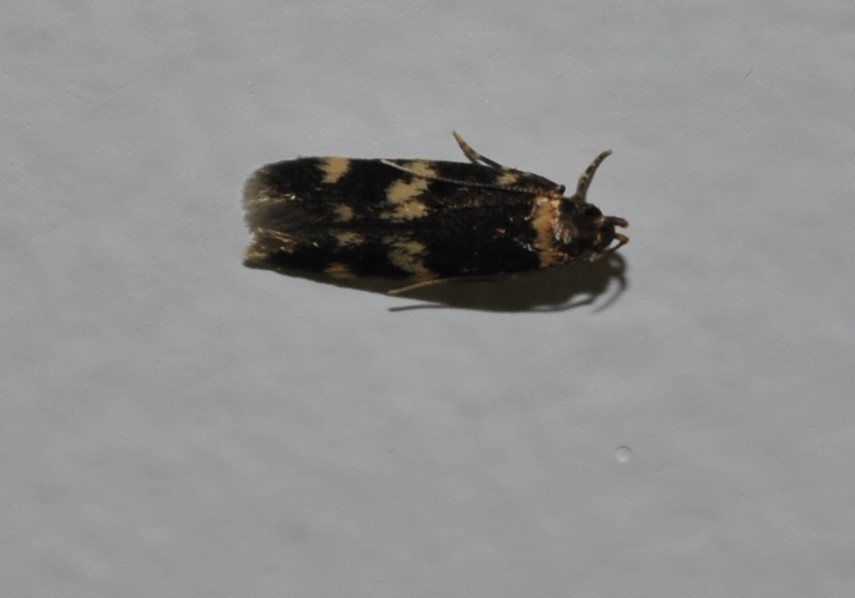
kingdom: Animalia
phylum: Arthropoda
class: Insecta
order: Lepidoptera
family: Autostichidae
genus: Oegoconia
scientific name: Oegoconia quadripuncta
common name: Four-spotted obscure
